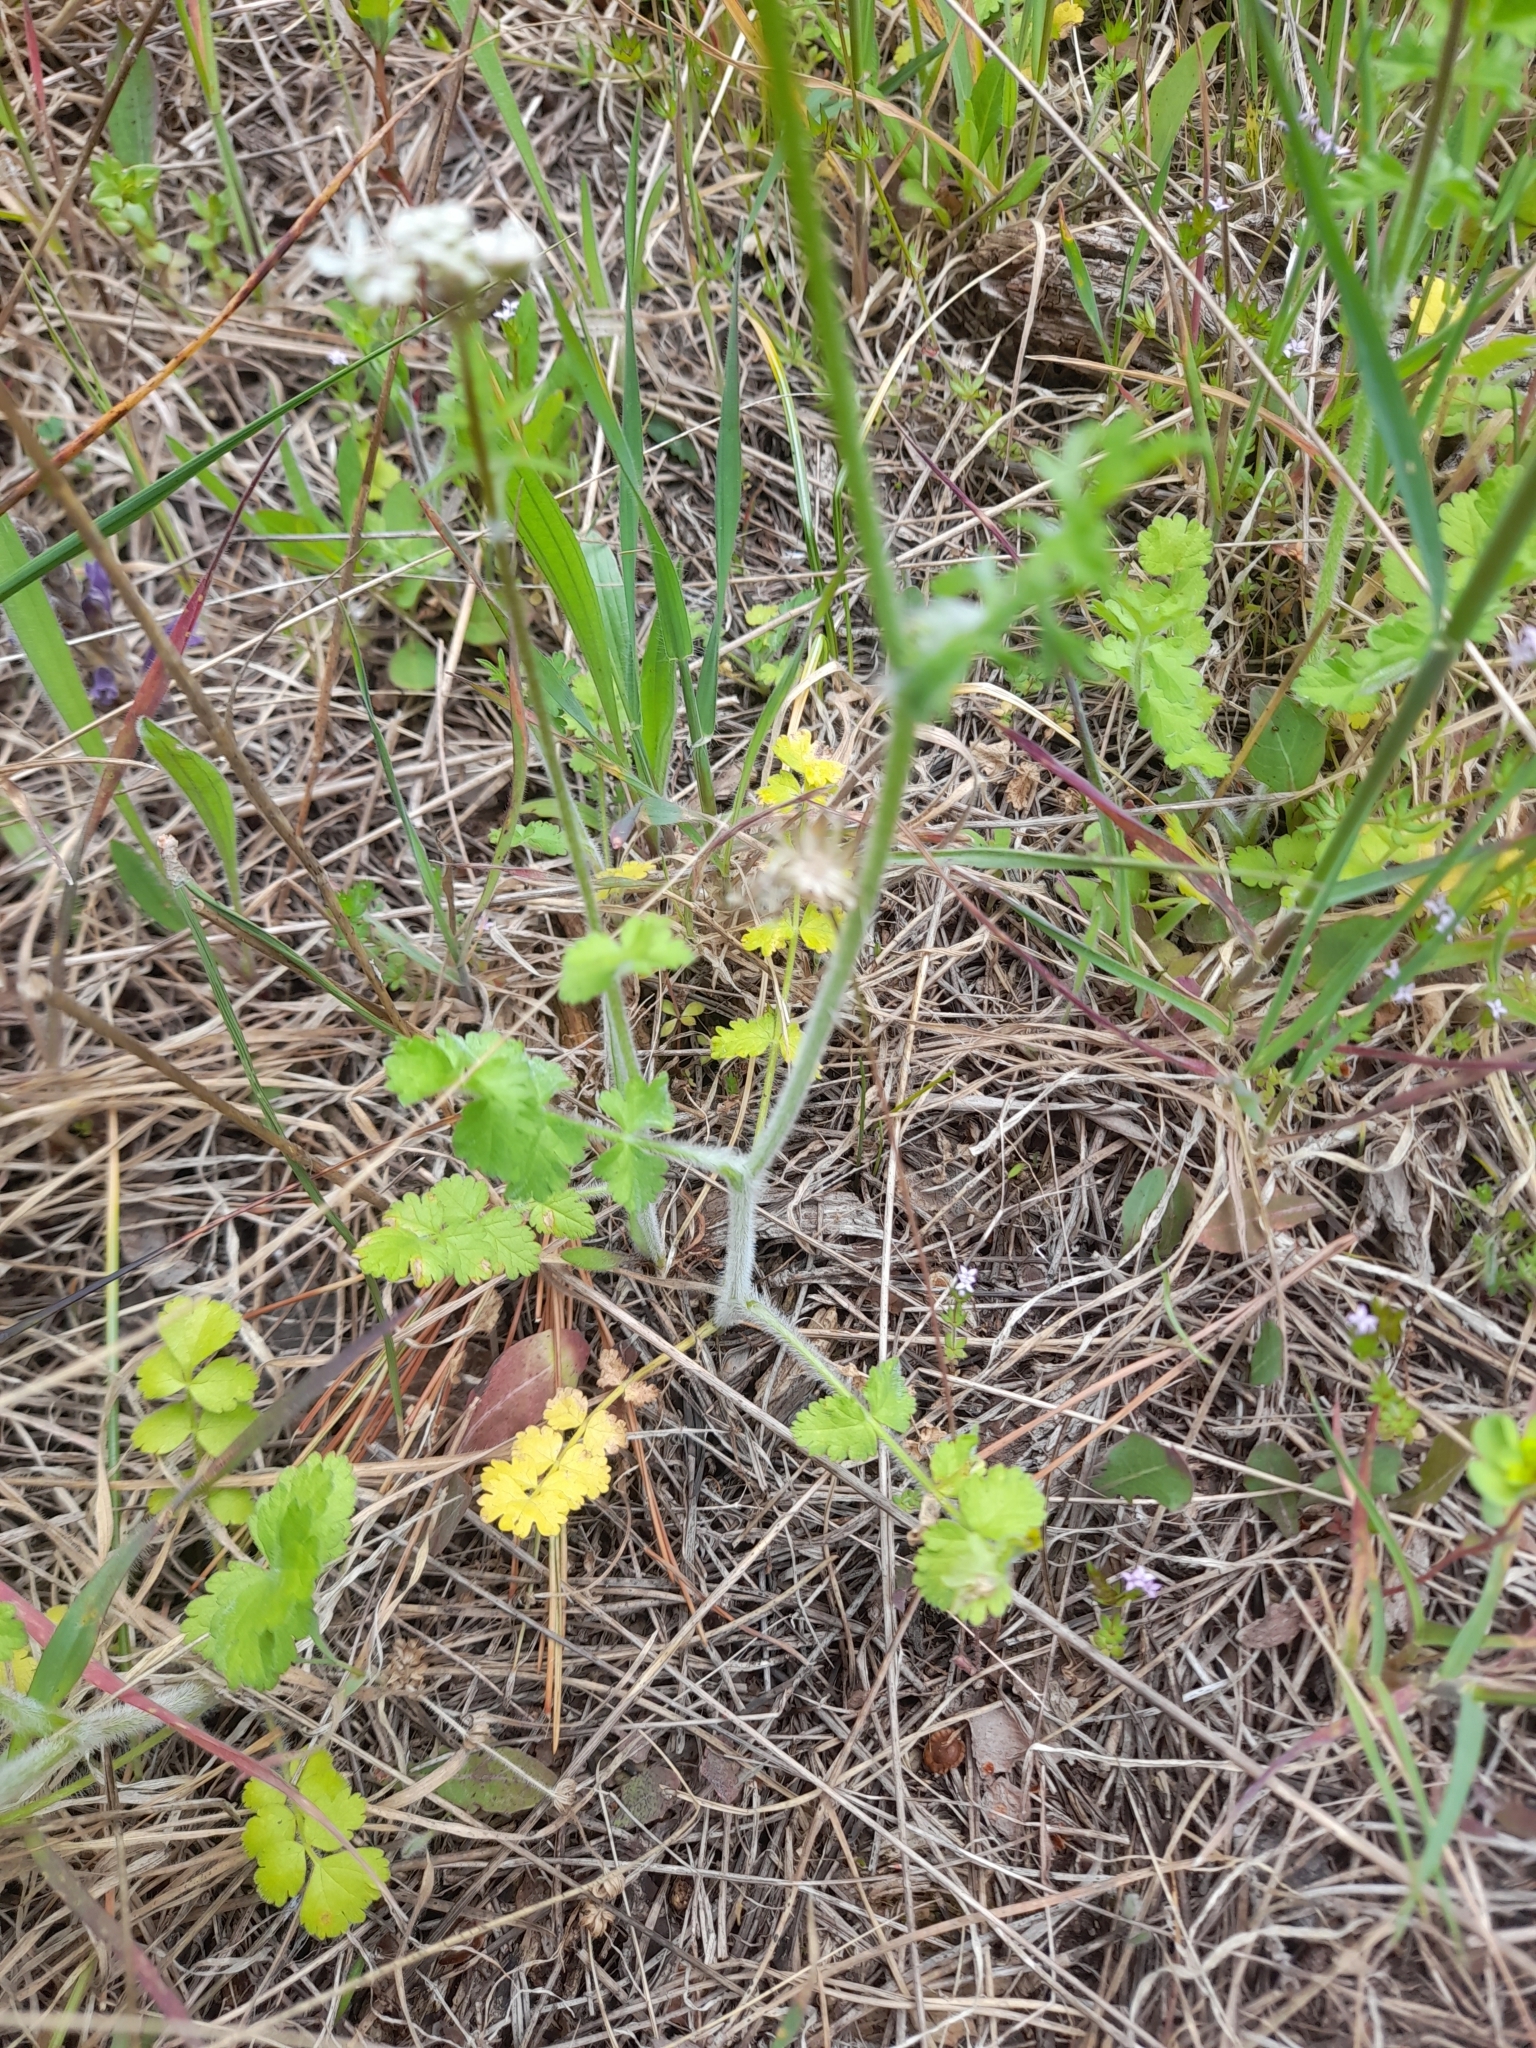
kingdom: Plantae
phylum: Tracheophyta
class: Magnoliopsida
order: Apiales
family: Apiaceae
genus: Tordylium
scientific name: Tordylium apulum
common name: Mediterranean hartwort
